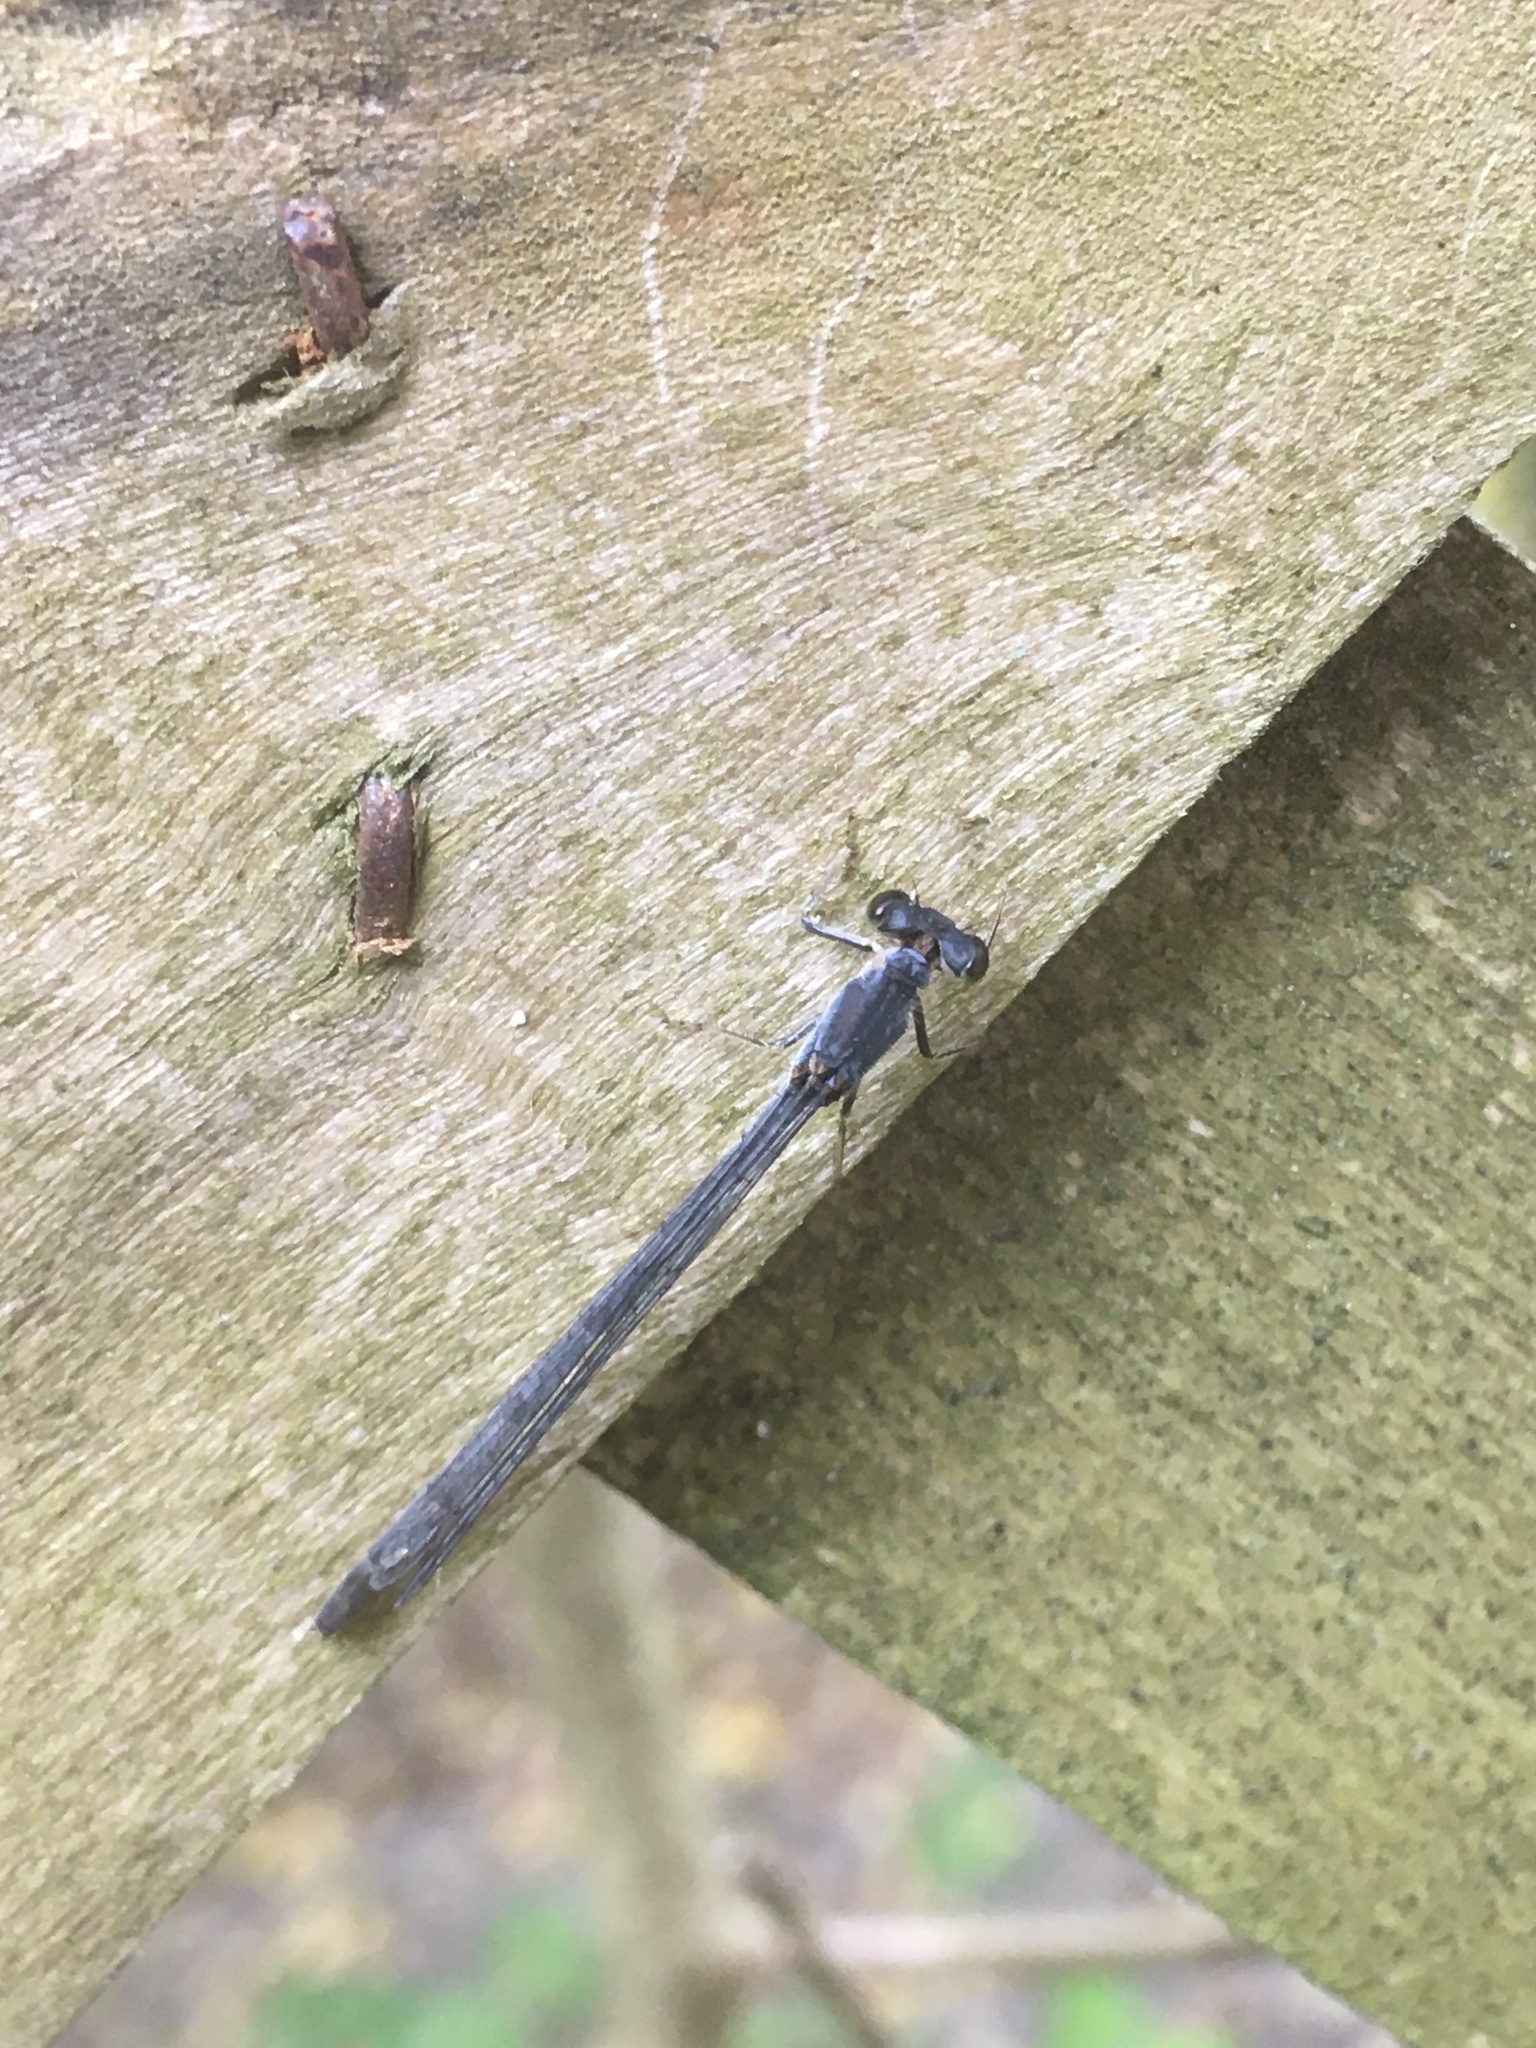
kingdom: Animalia
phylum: Arthropoda
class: Insecta
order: Odonata
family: Coenagrionidae
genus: Ischnura
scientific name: Ischnura posita
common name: Fragile forktail
